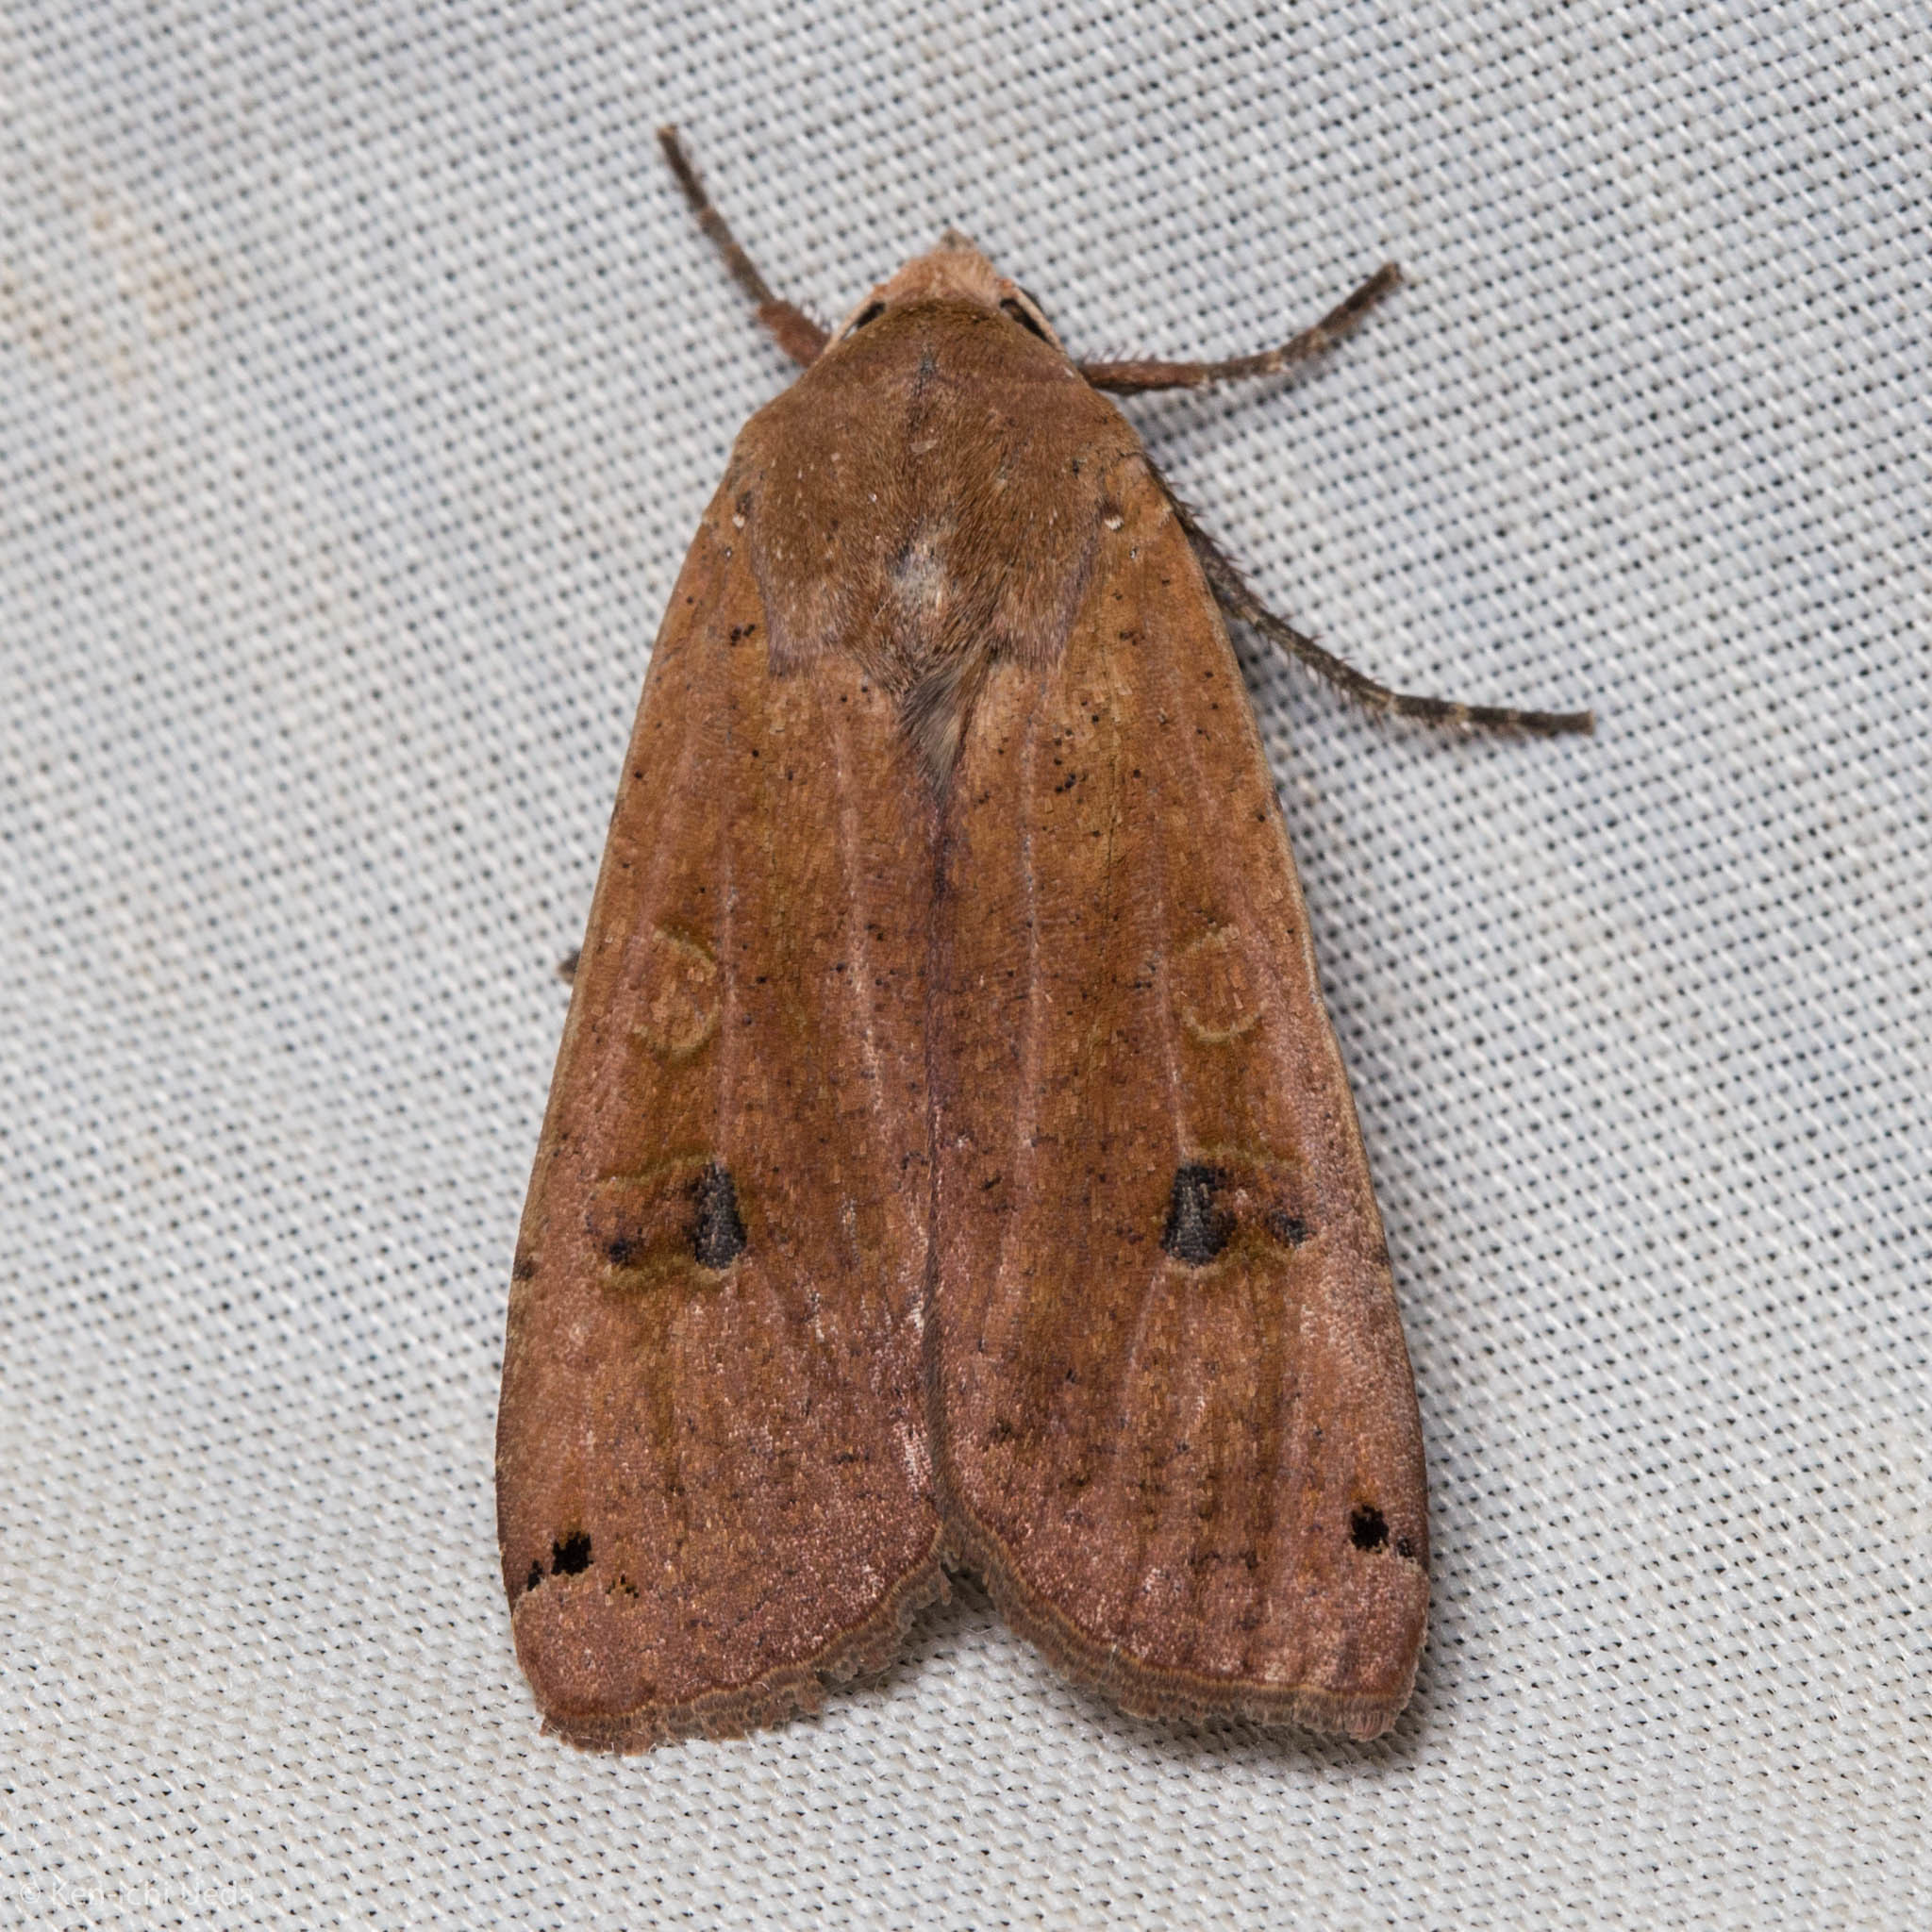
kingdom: Animalia
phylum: Arthropoda
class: Insecta
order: Lepidoptera
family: Noctuidae
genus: Noctua
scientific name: Noctua pronuba
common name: Large yellow underwing
